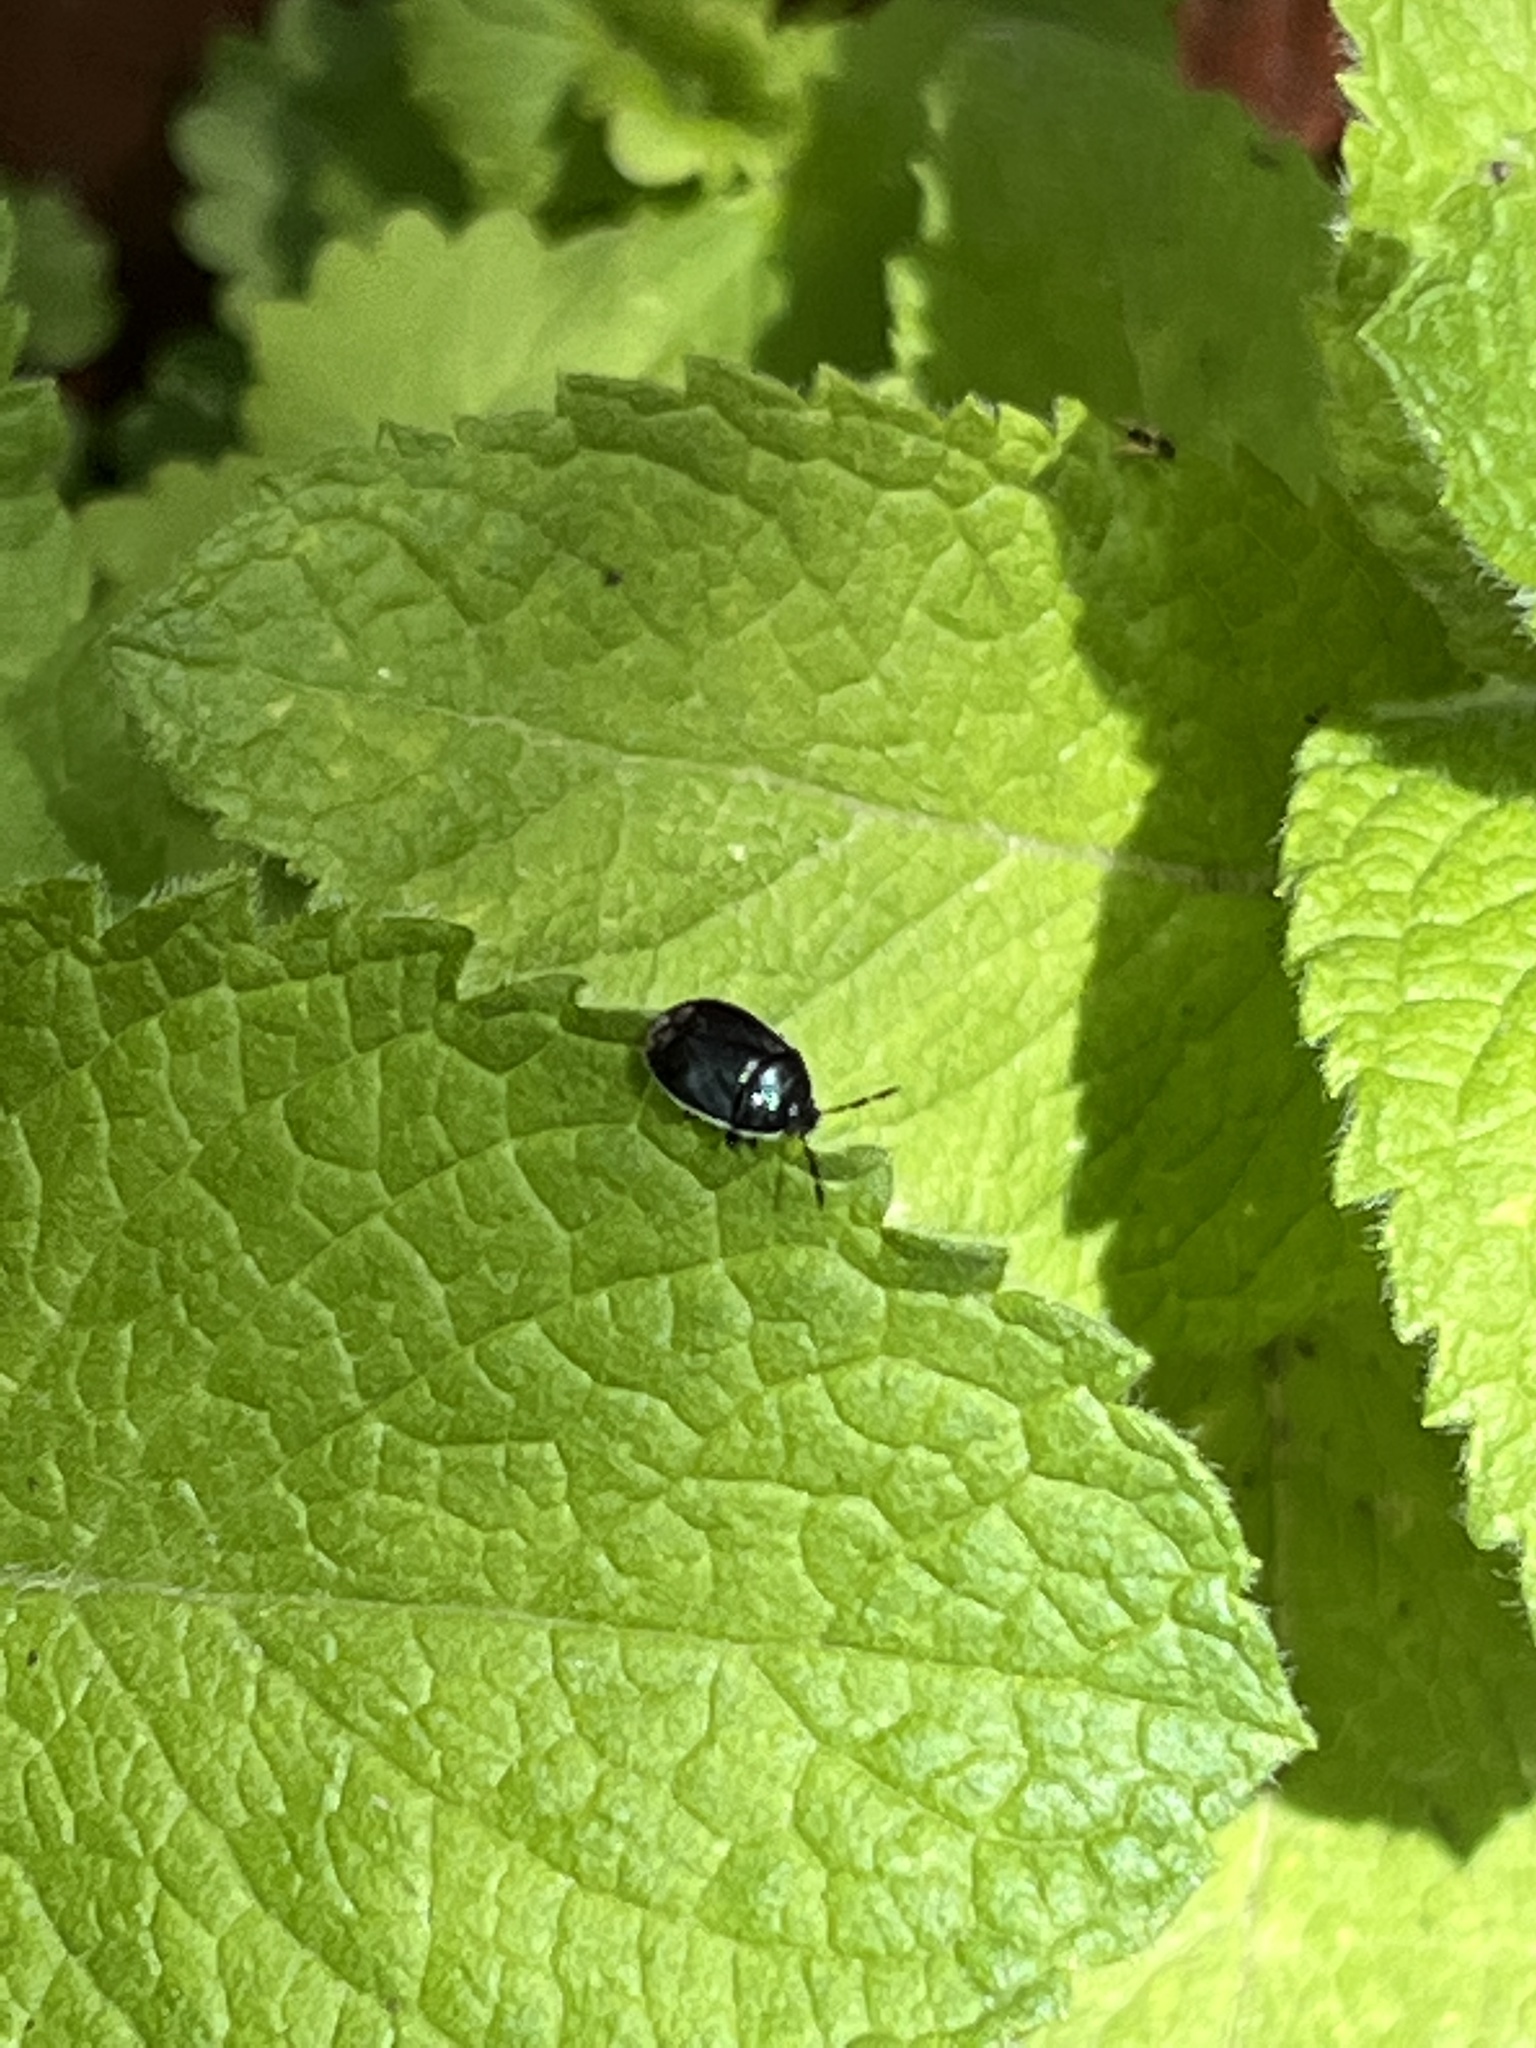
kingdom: Animalia
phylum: Arthropoda
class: Insecta
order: Hemiptera
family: Cydnidae
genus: Sehirus
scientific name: Sehirus cinctus
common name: White-margined burrower bug
